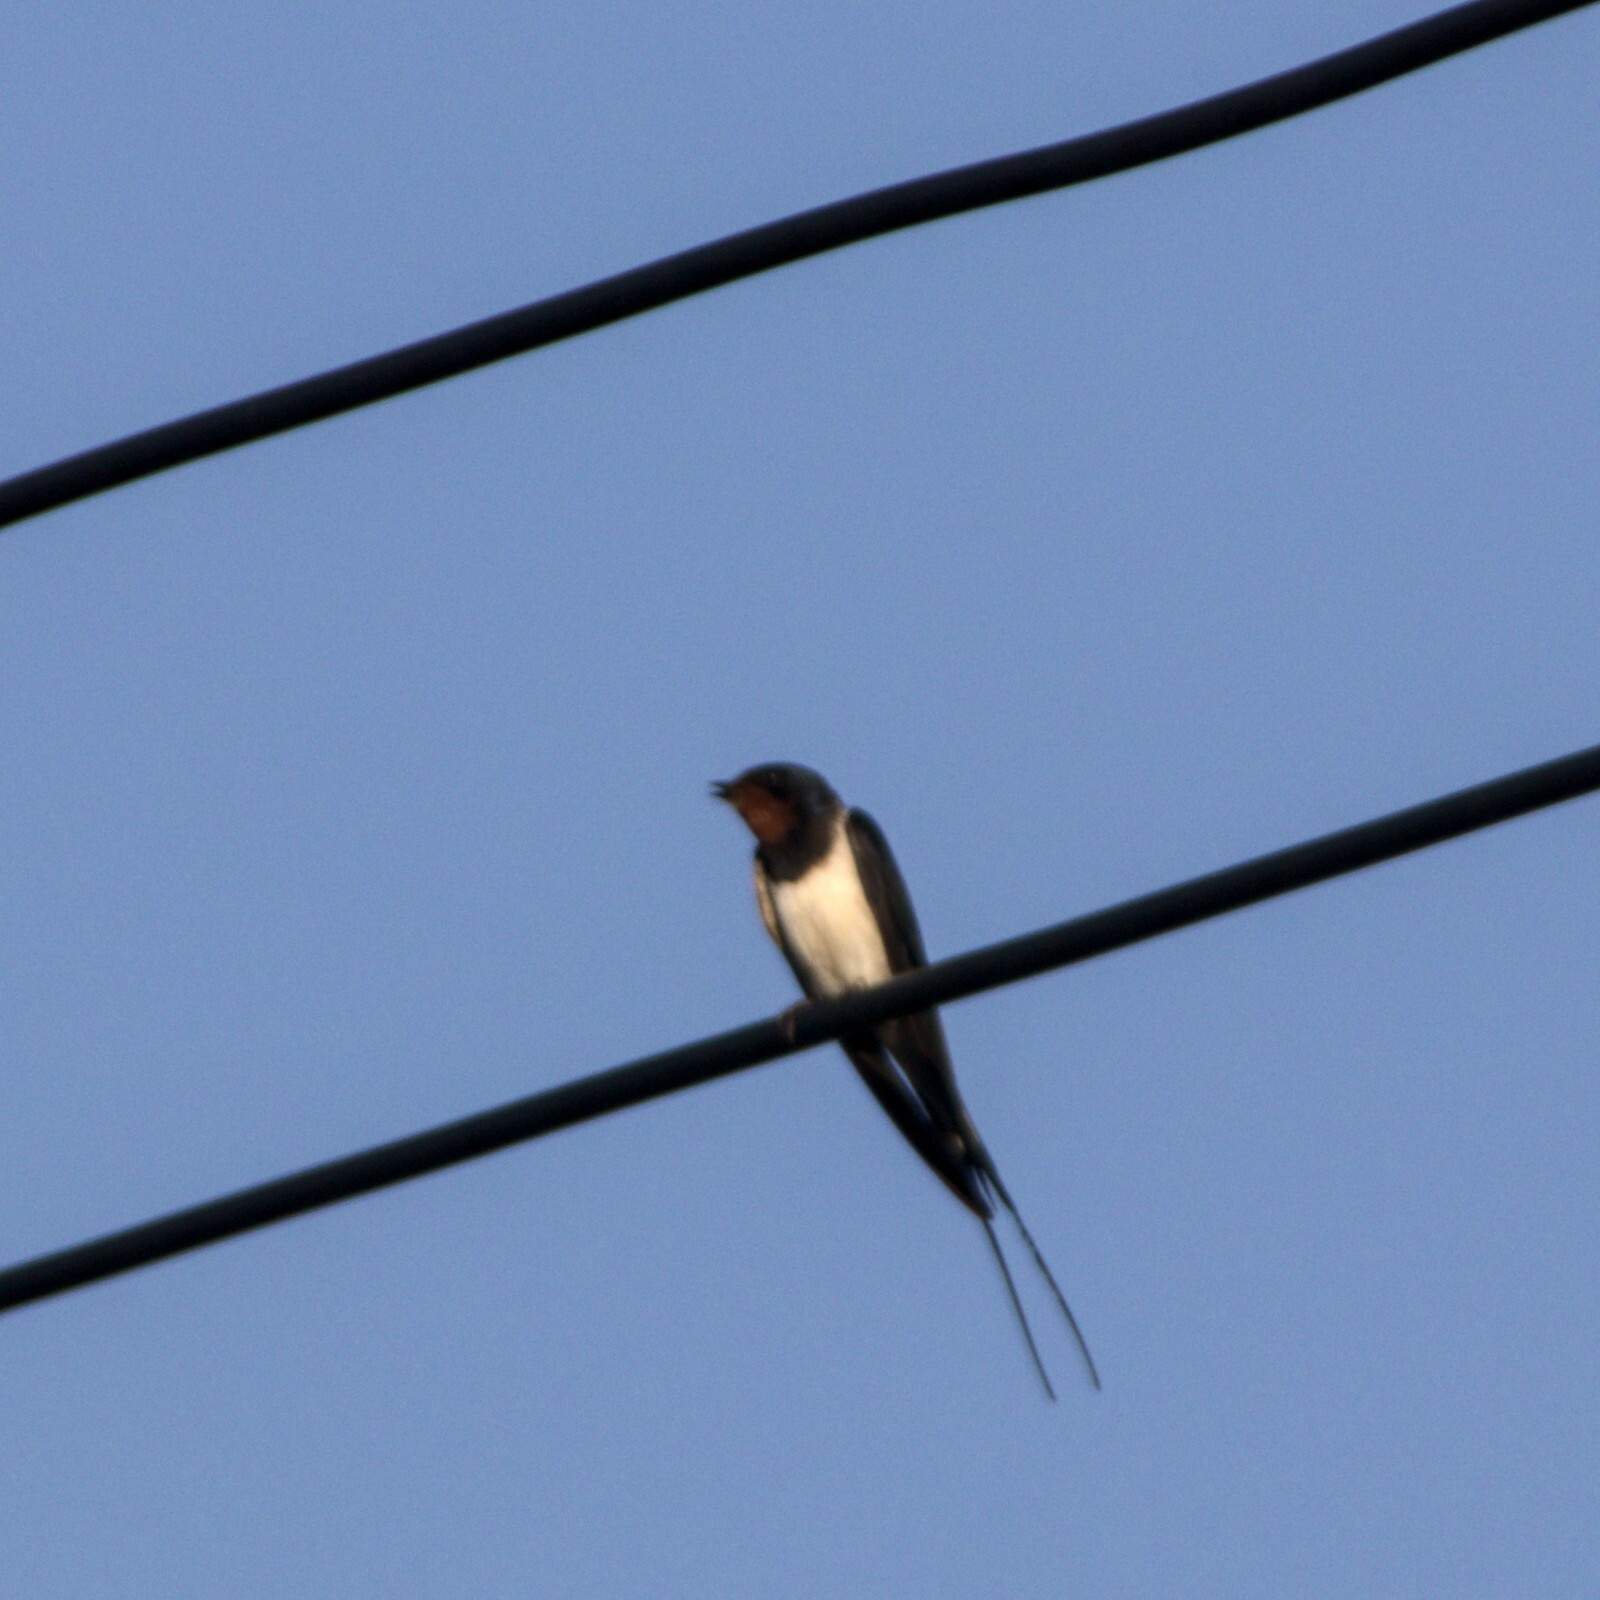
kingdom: Animalia
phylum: Chordata
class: Aves
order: Passeriformes
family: Hirundinidae
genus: Hirundo
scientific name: Hirundo rustica
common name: Barn swallow
